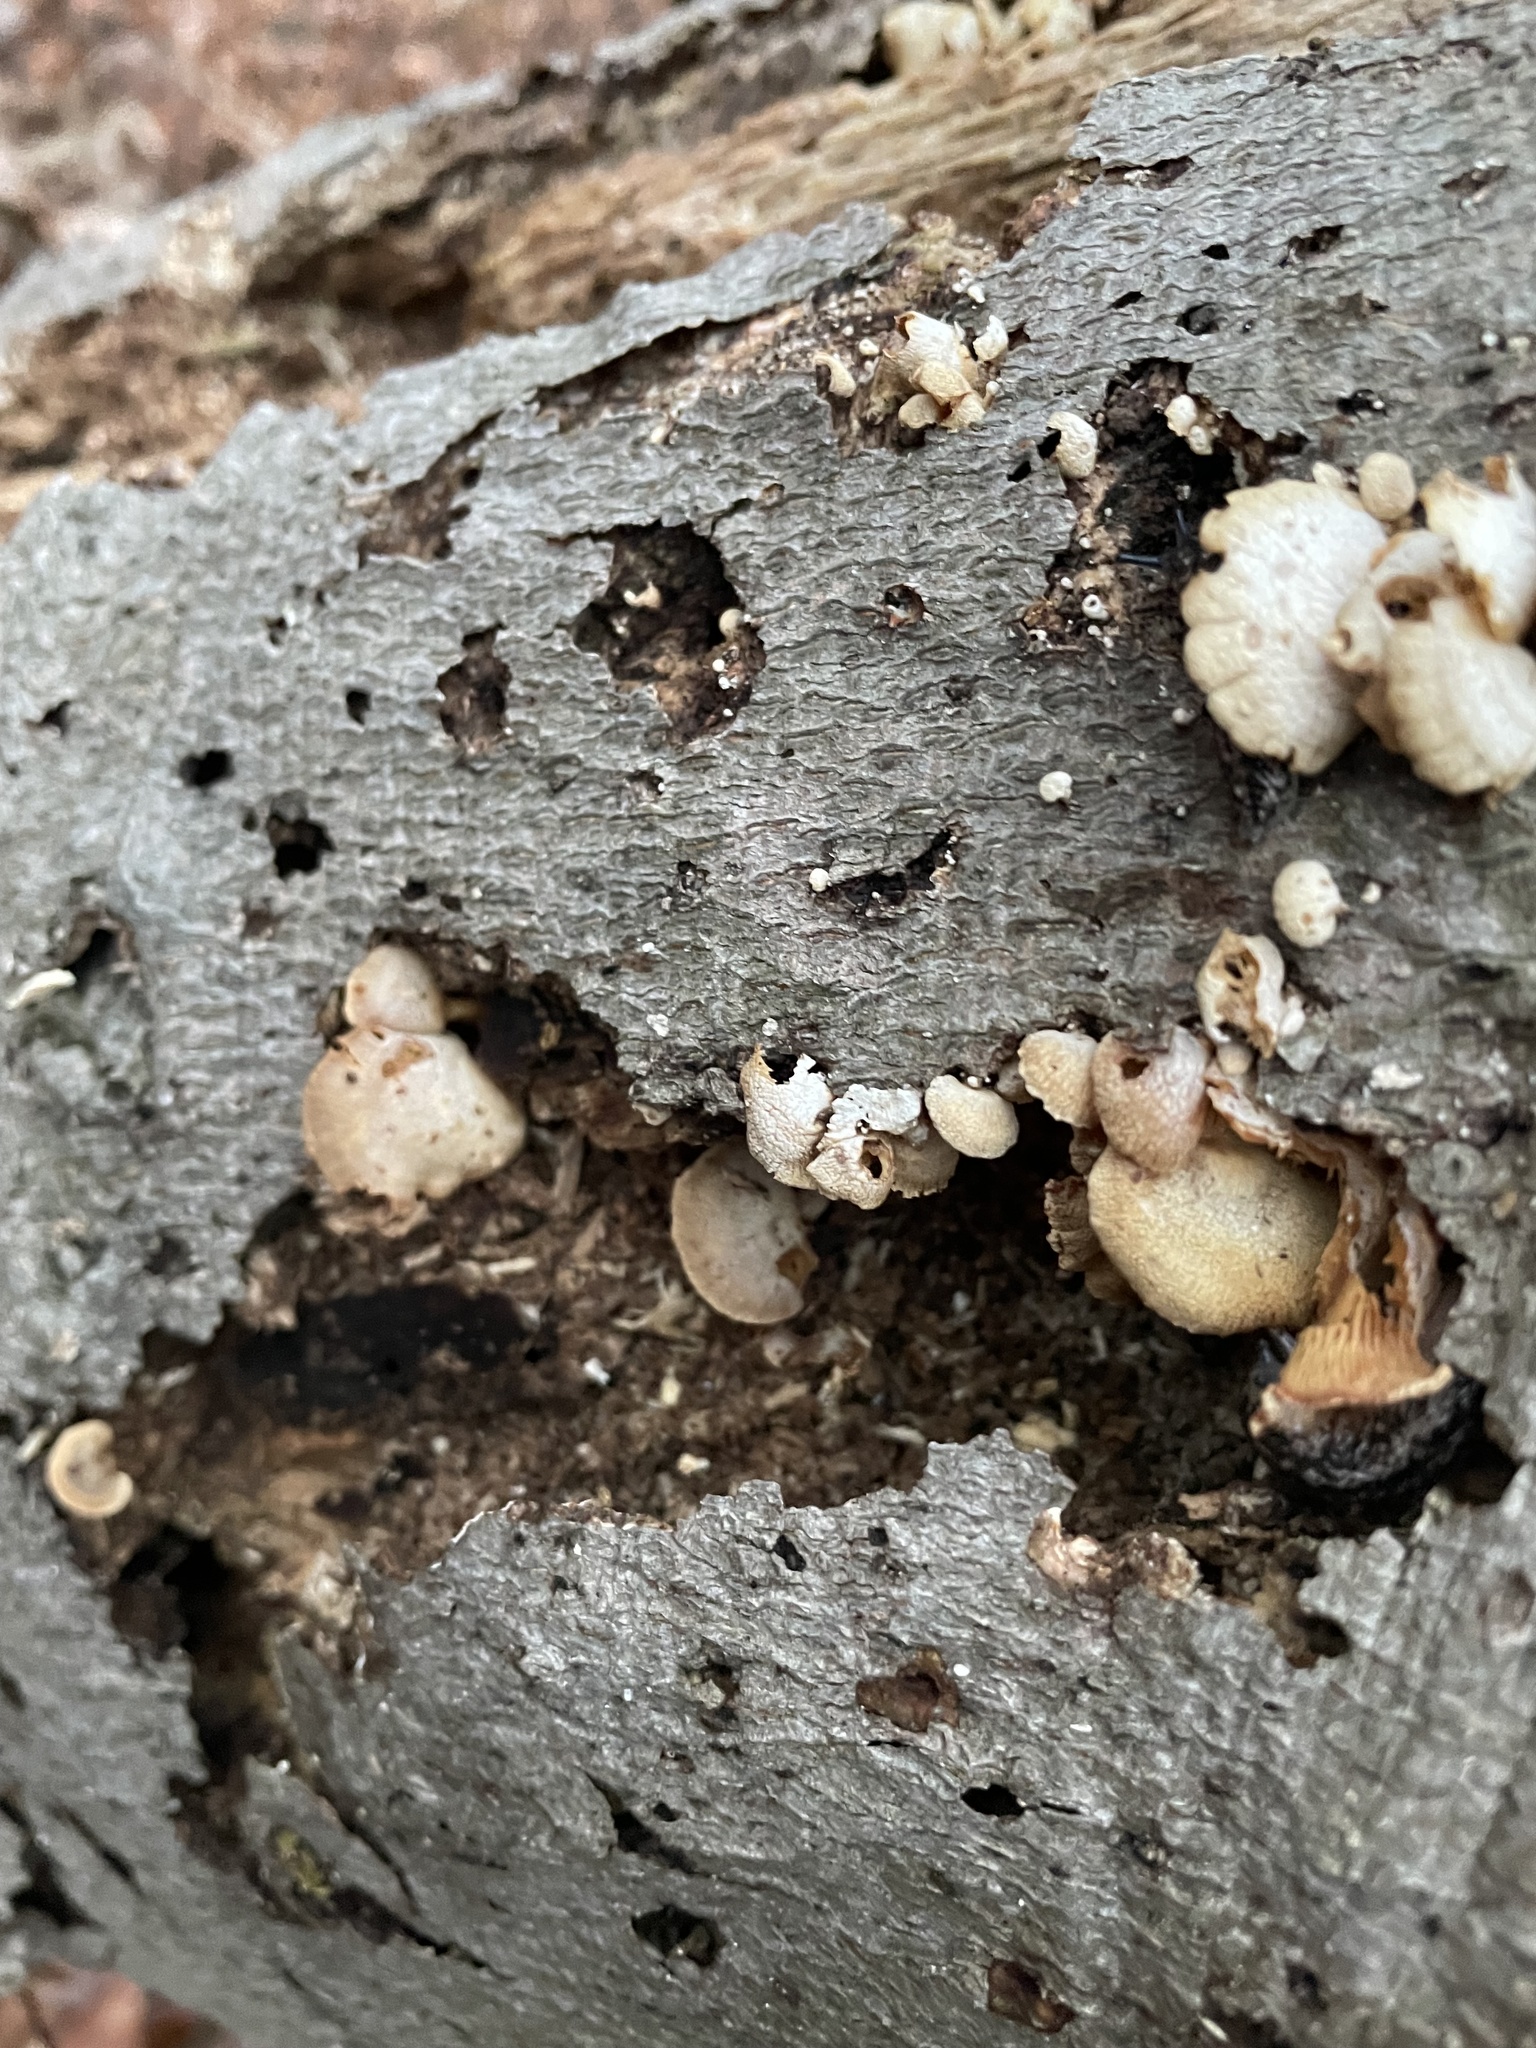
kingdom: Fungi
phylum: Basidiomycota
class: Agaricomycetes
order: Agaricales
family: Mycenaceae
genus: Panellus
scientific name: Panellus stipticus
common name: Bitter oysterling
